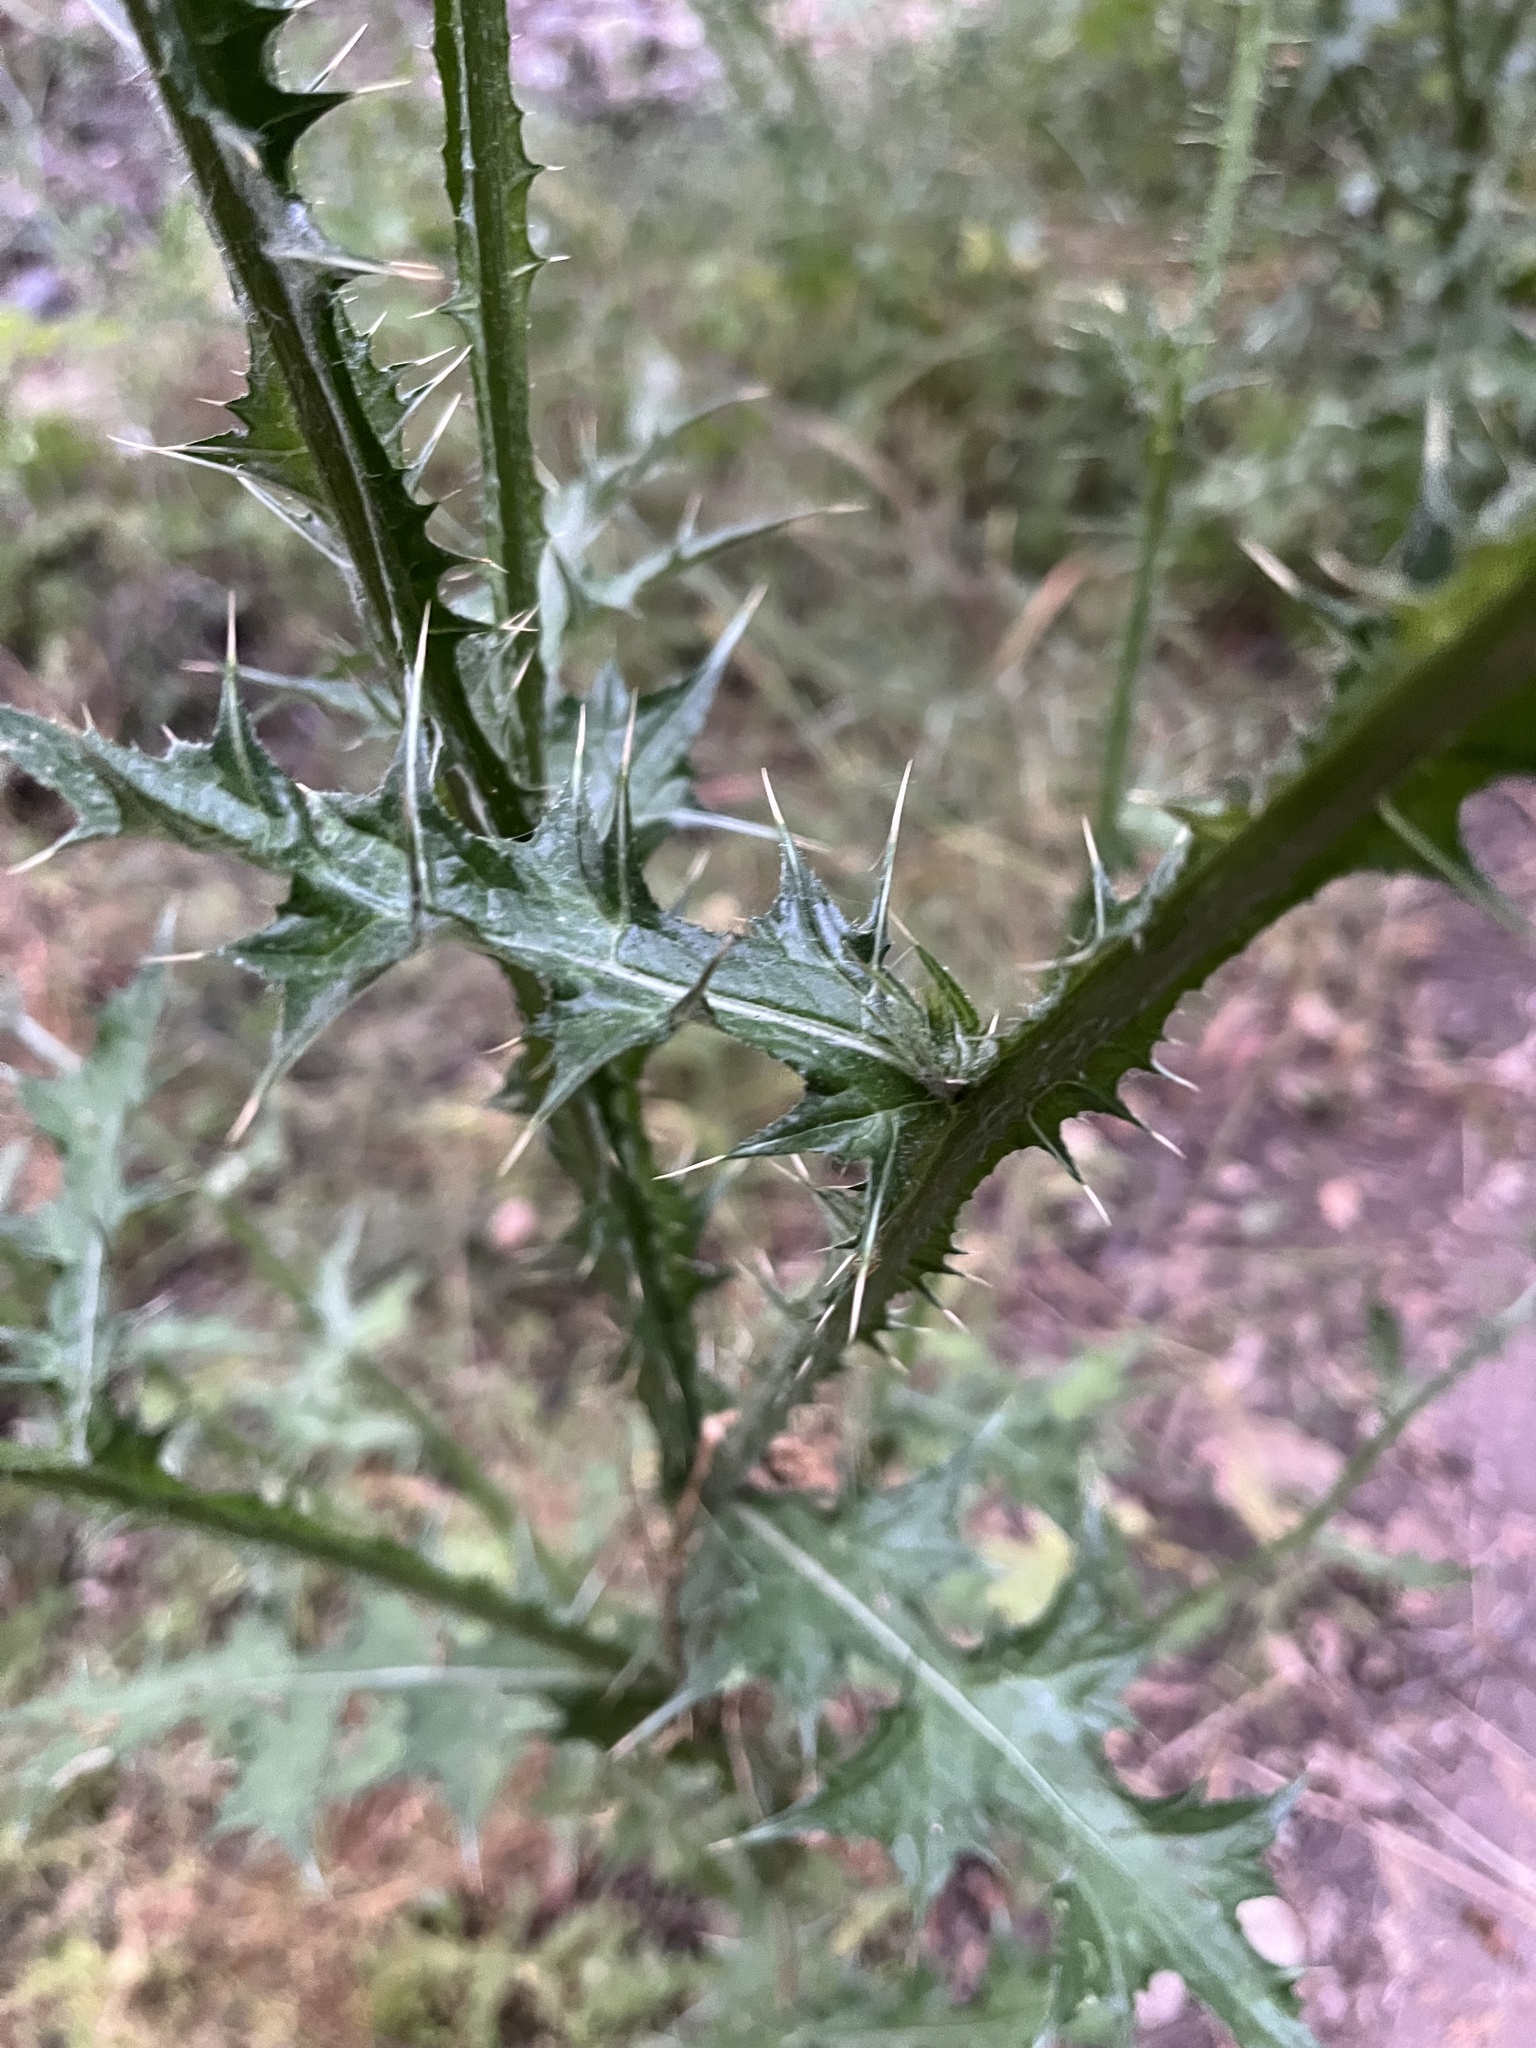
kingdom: Plantae
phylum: Tracheophyta
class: Magnoliopsida
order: Asterales
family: Asteraceae
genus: Carduus
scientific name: Carduus pycnocephalus
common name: Plymouth thistle
